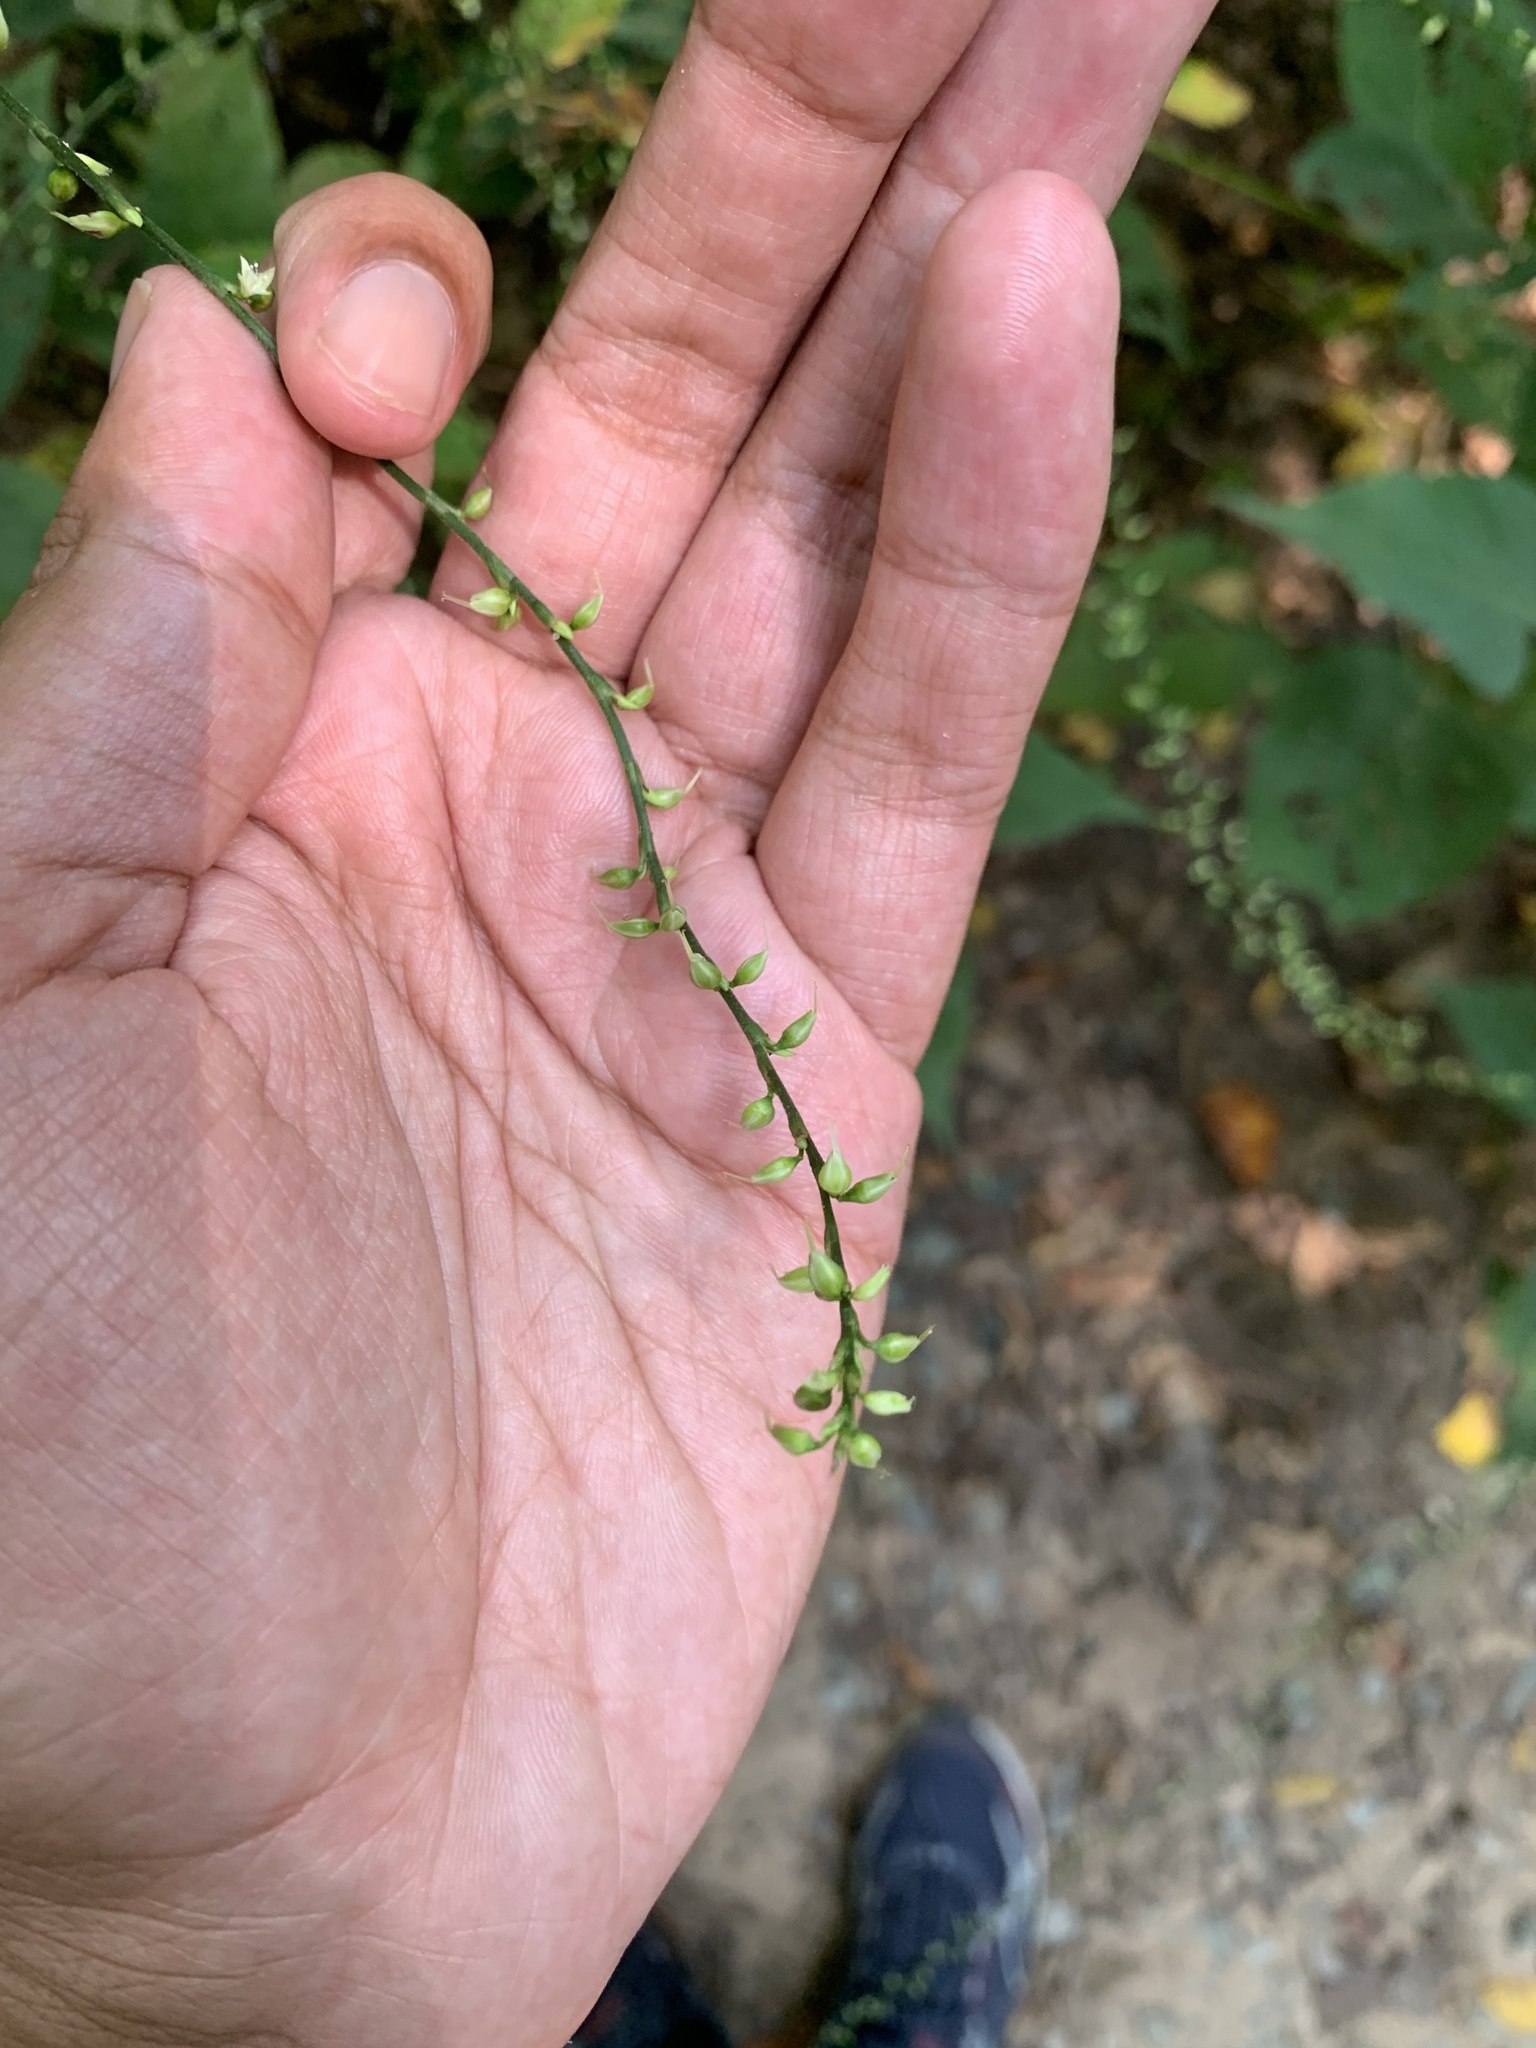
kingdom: Plantae
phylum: Tracheophyta
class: Magnoliopsida
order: Caryophyllales
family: Polygonaceae
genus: Persicaria
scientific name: Persicaria virginiana
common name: Jumpseed
